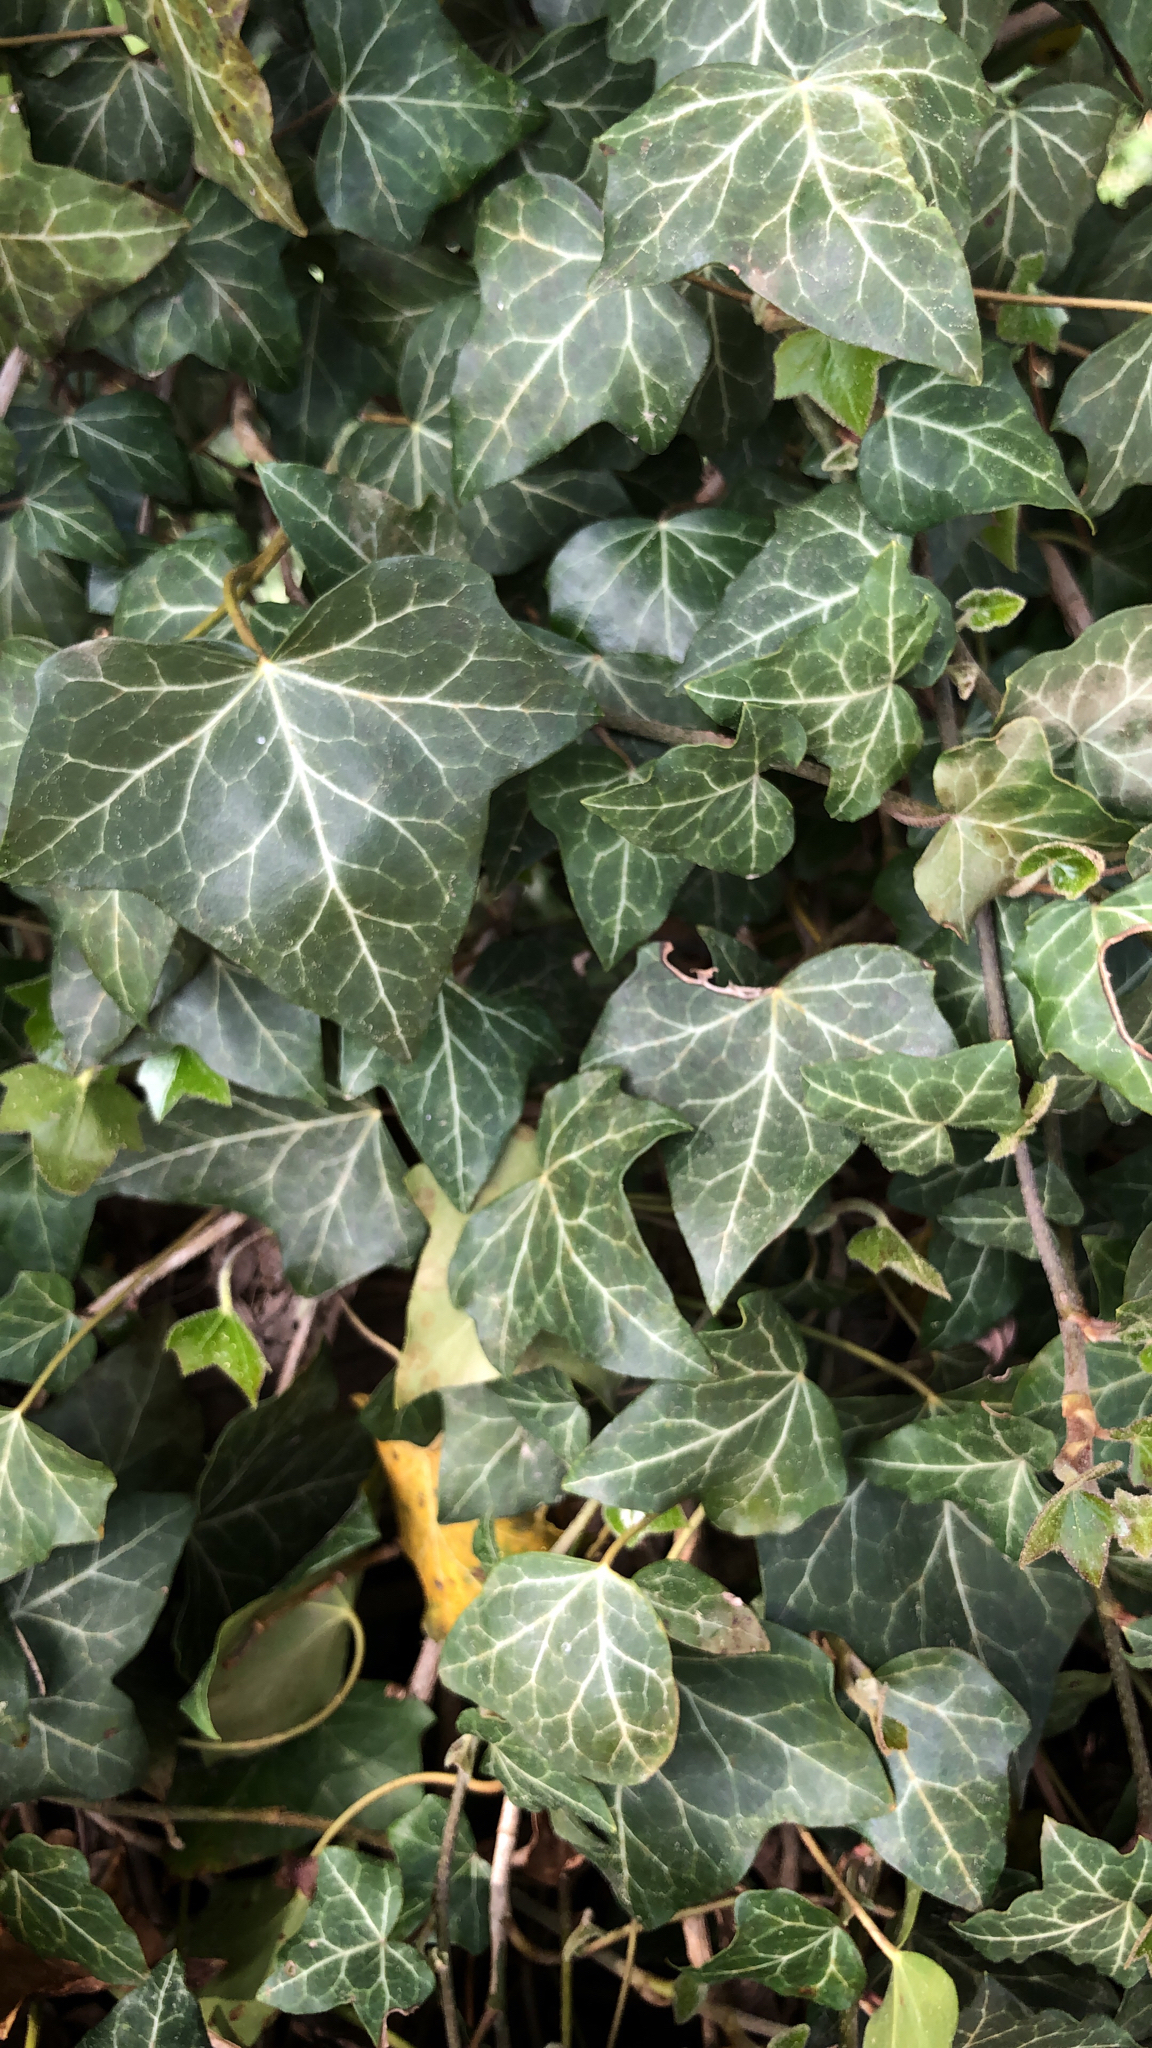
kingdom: Plantae
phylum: Tracheophyta
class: Magnoliopsida
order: Apiales
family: Araliaceae
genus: Hedera
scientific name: Hedera helix
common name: Ivy
